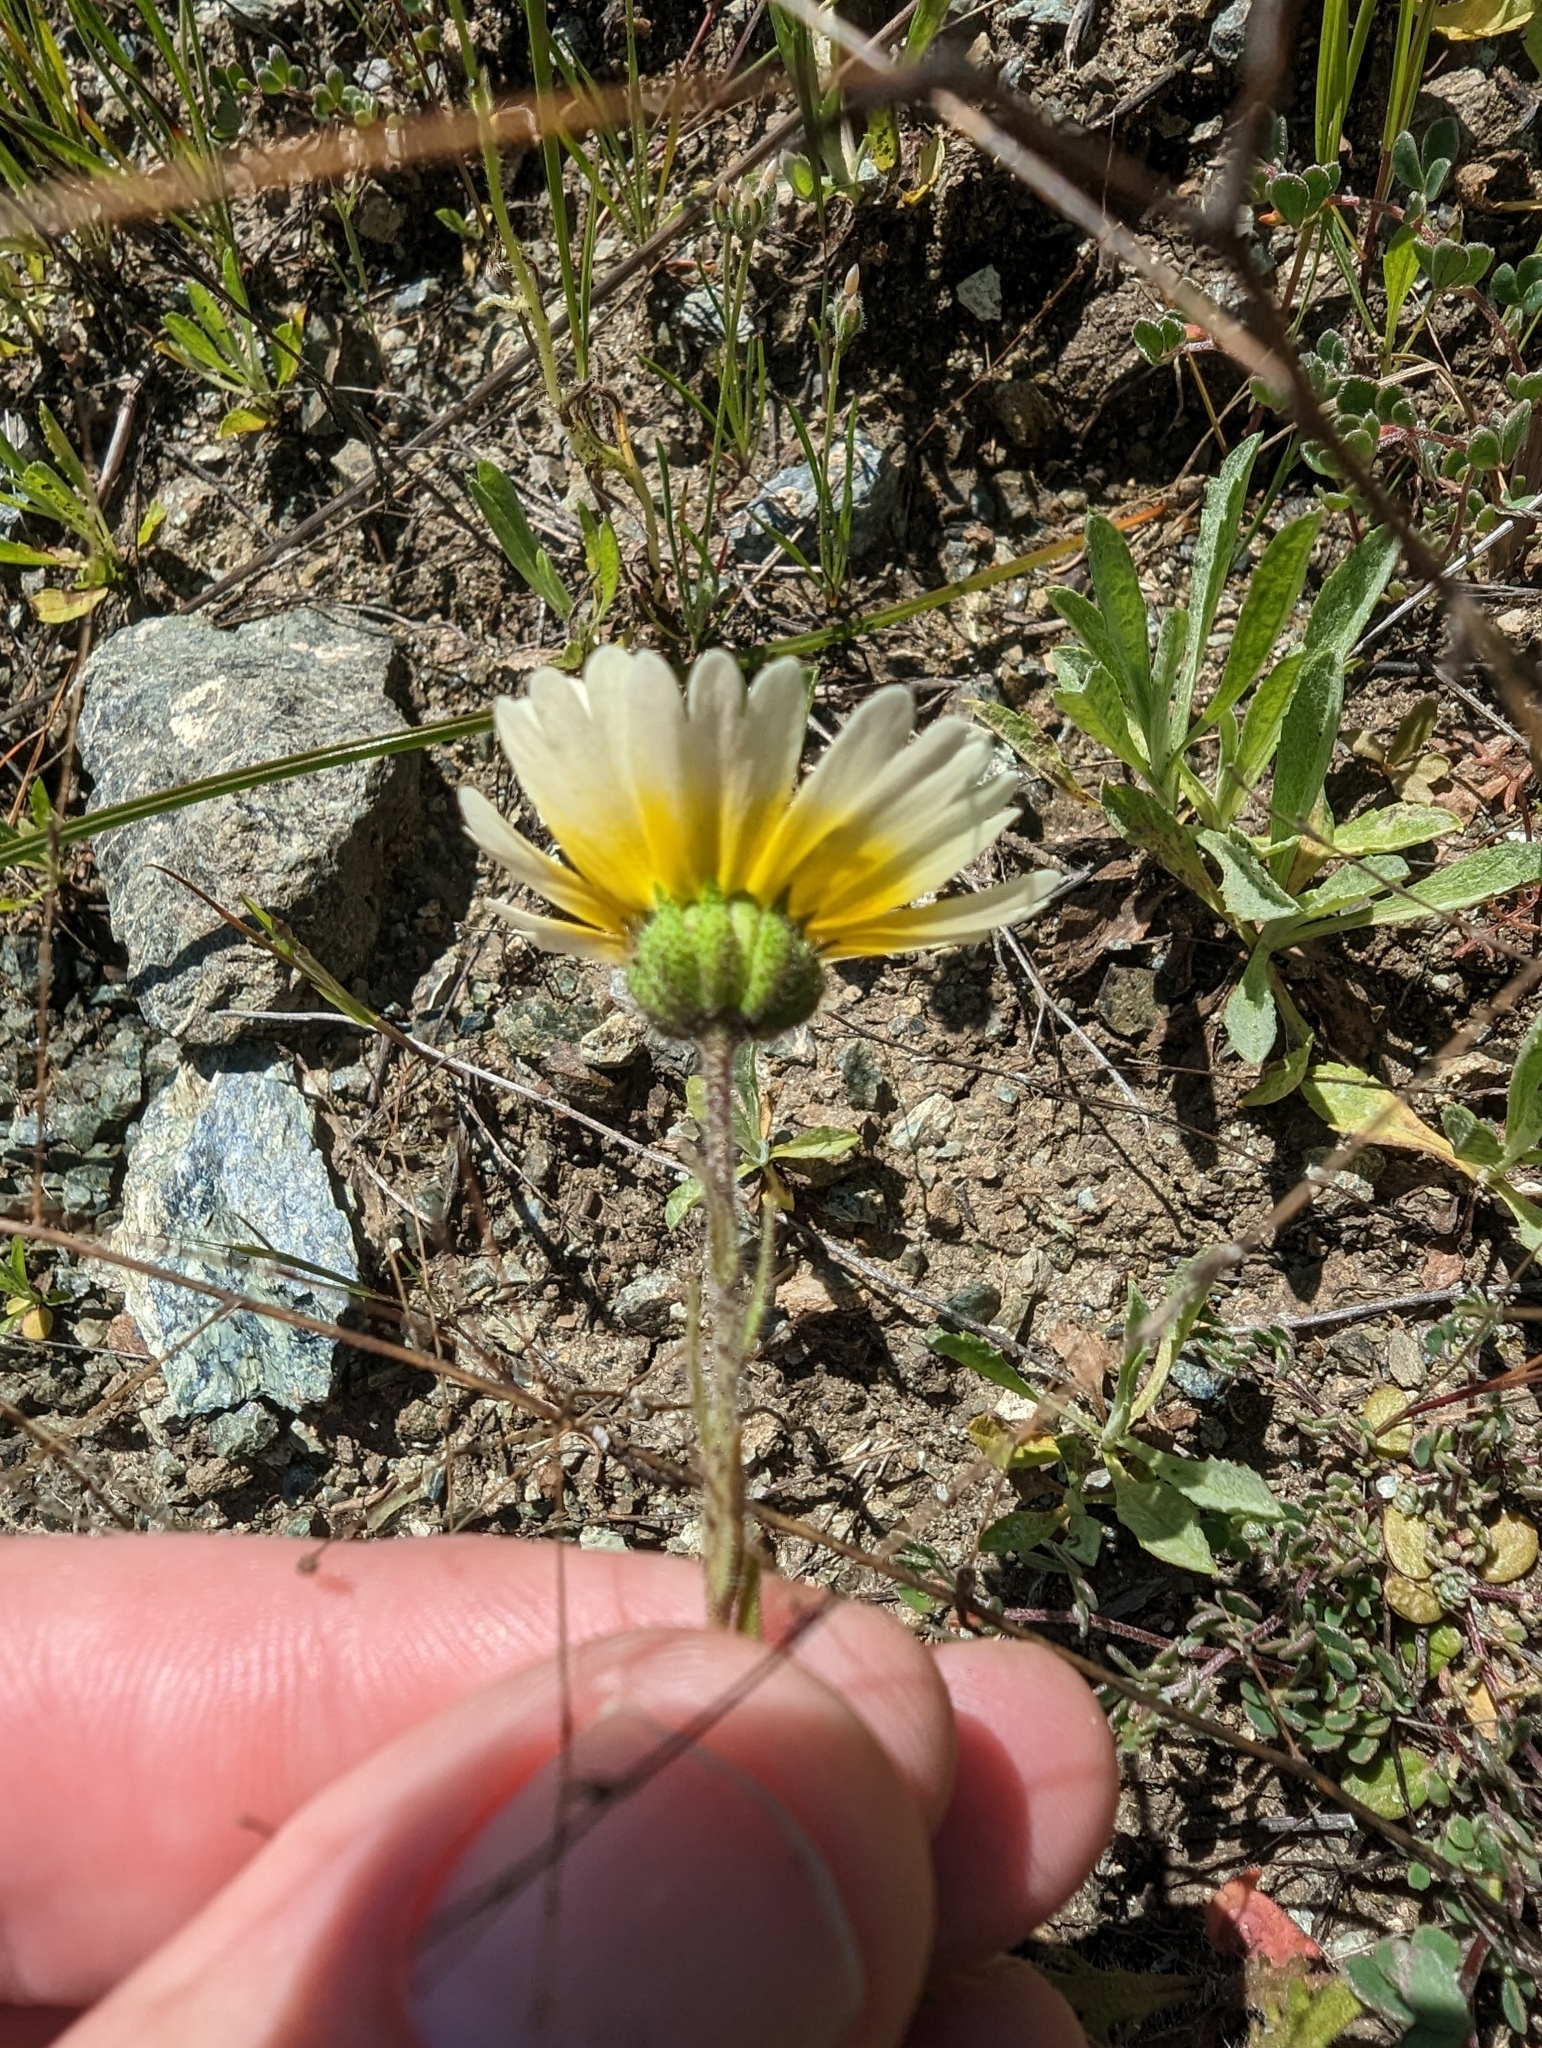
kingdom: Plantae
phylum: Tracheophyta
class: Magnoliopsida
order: Asterales
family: Asteraceae
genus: Layia
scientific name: Layia gaillardioides
